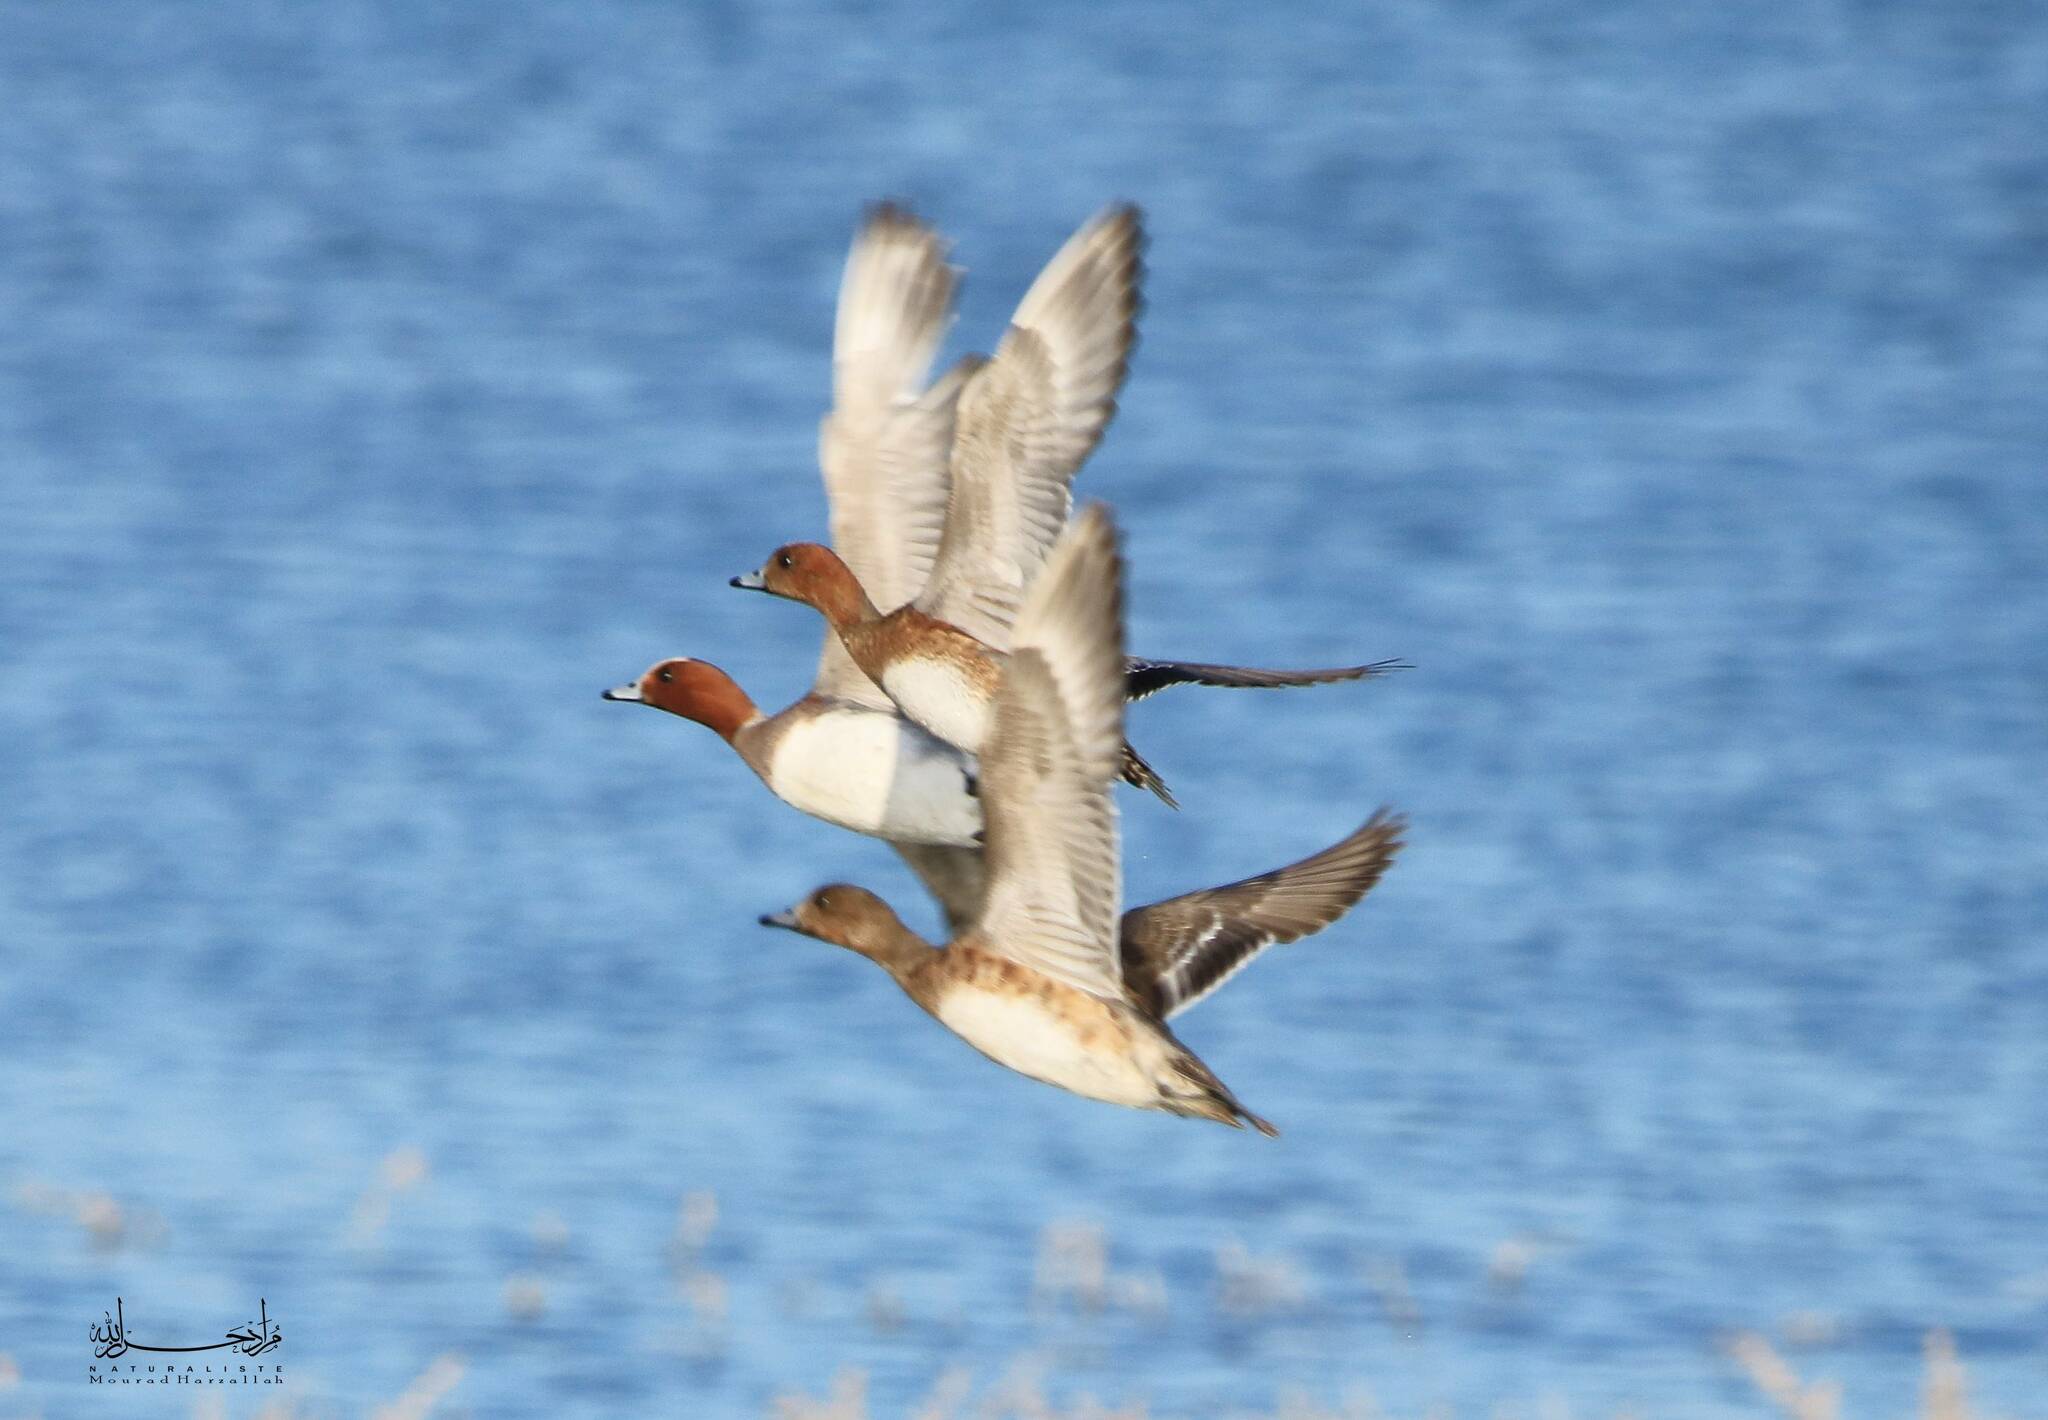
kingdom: Animalia
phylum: Chordata
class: Aves
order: Anseriformes
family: Anatidae
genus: Mareca
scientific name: Mareca penelope
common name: Eurasian wigeon
